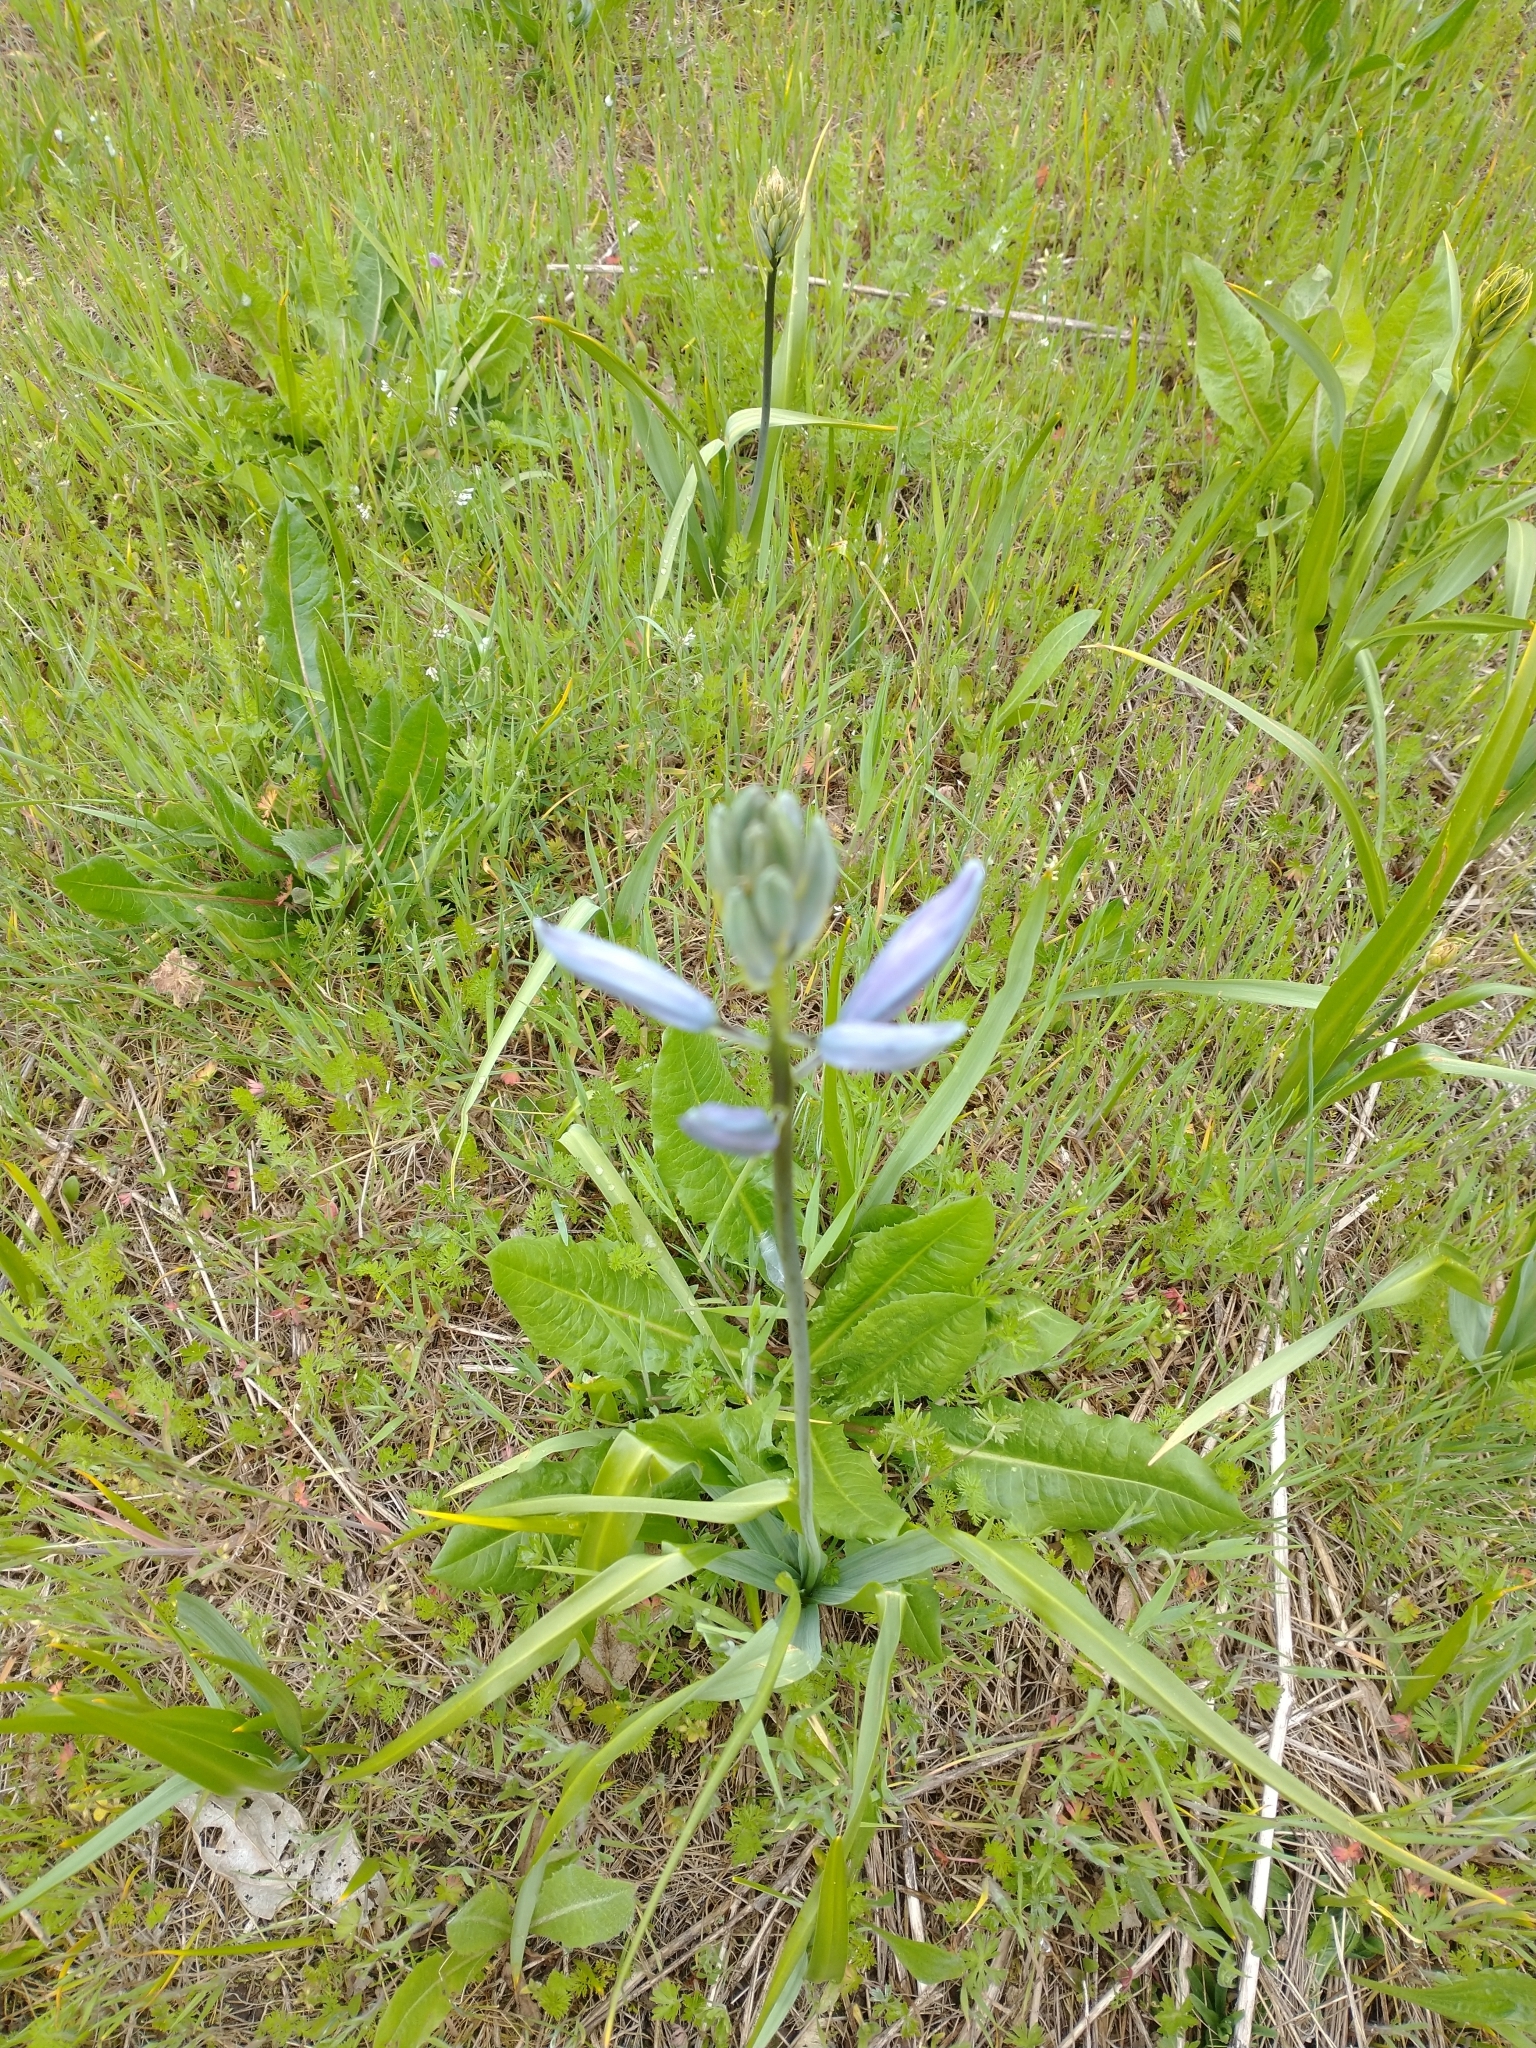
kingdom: Plantae
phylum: Tracheophyta
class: Liliopsida
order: Asparagales
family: Asparagaceae
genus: Camassia
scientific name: Camassia leichtlinii
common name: Leichtlin's camas
